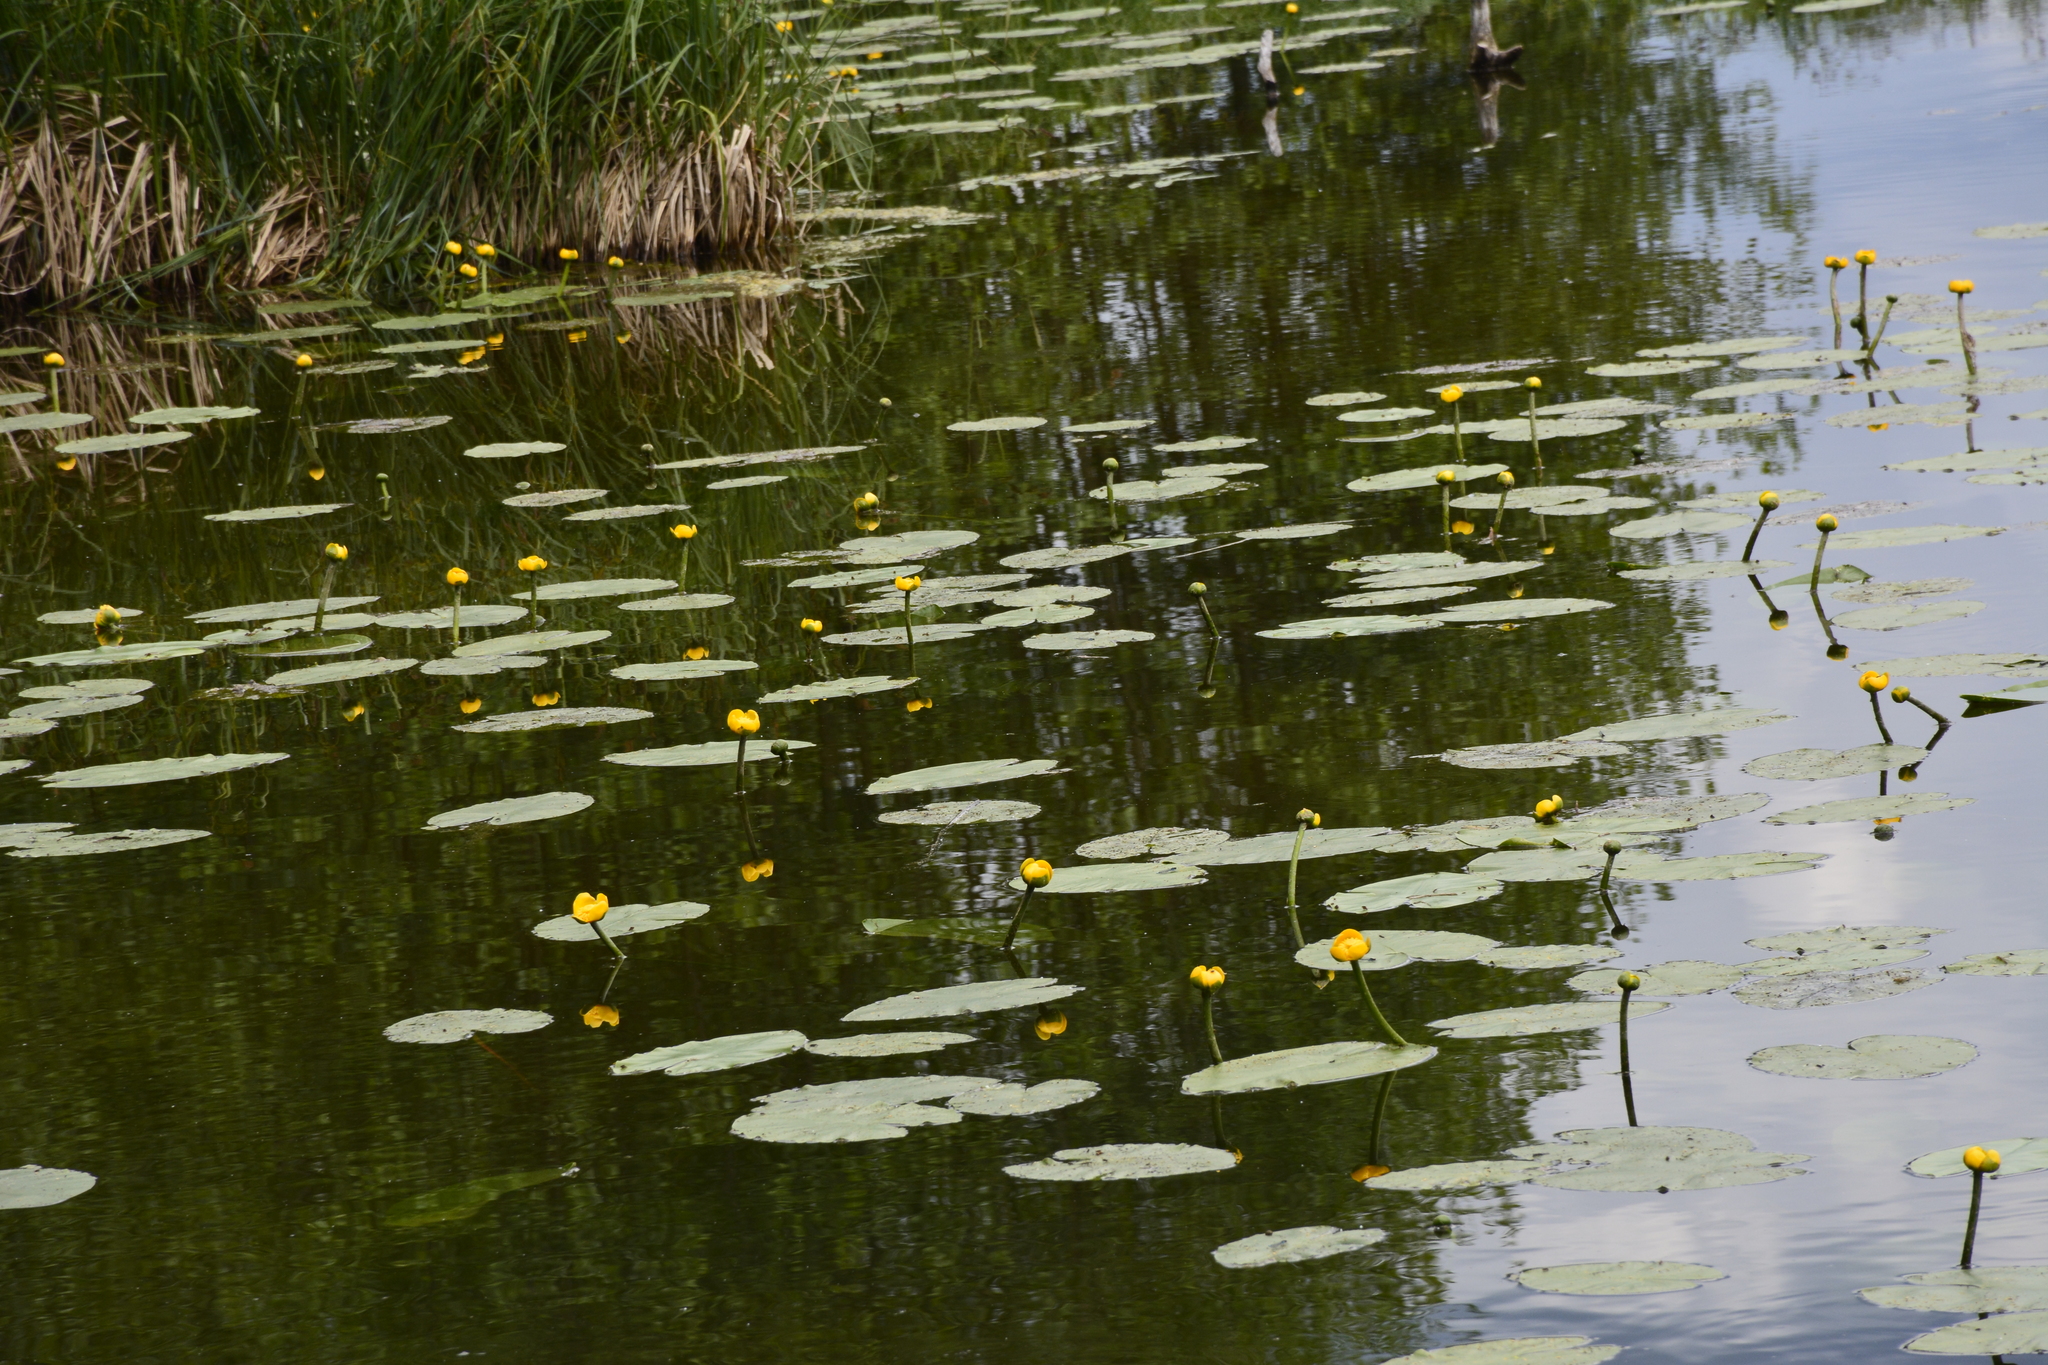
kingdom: Plantae
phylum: Tracheophyta
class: Magnoliopsida
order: Nymphaeales
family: Nymphaeaceae
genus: Nuphar
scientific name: Nuphar lutea
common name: Yellow water-lily
